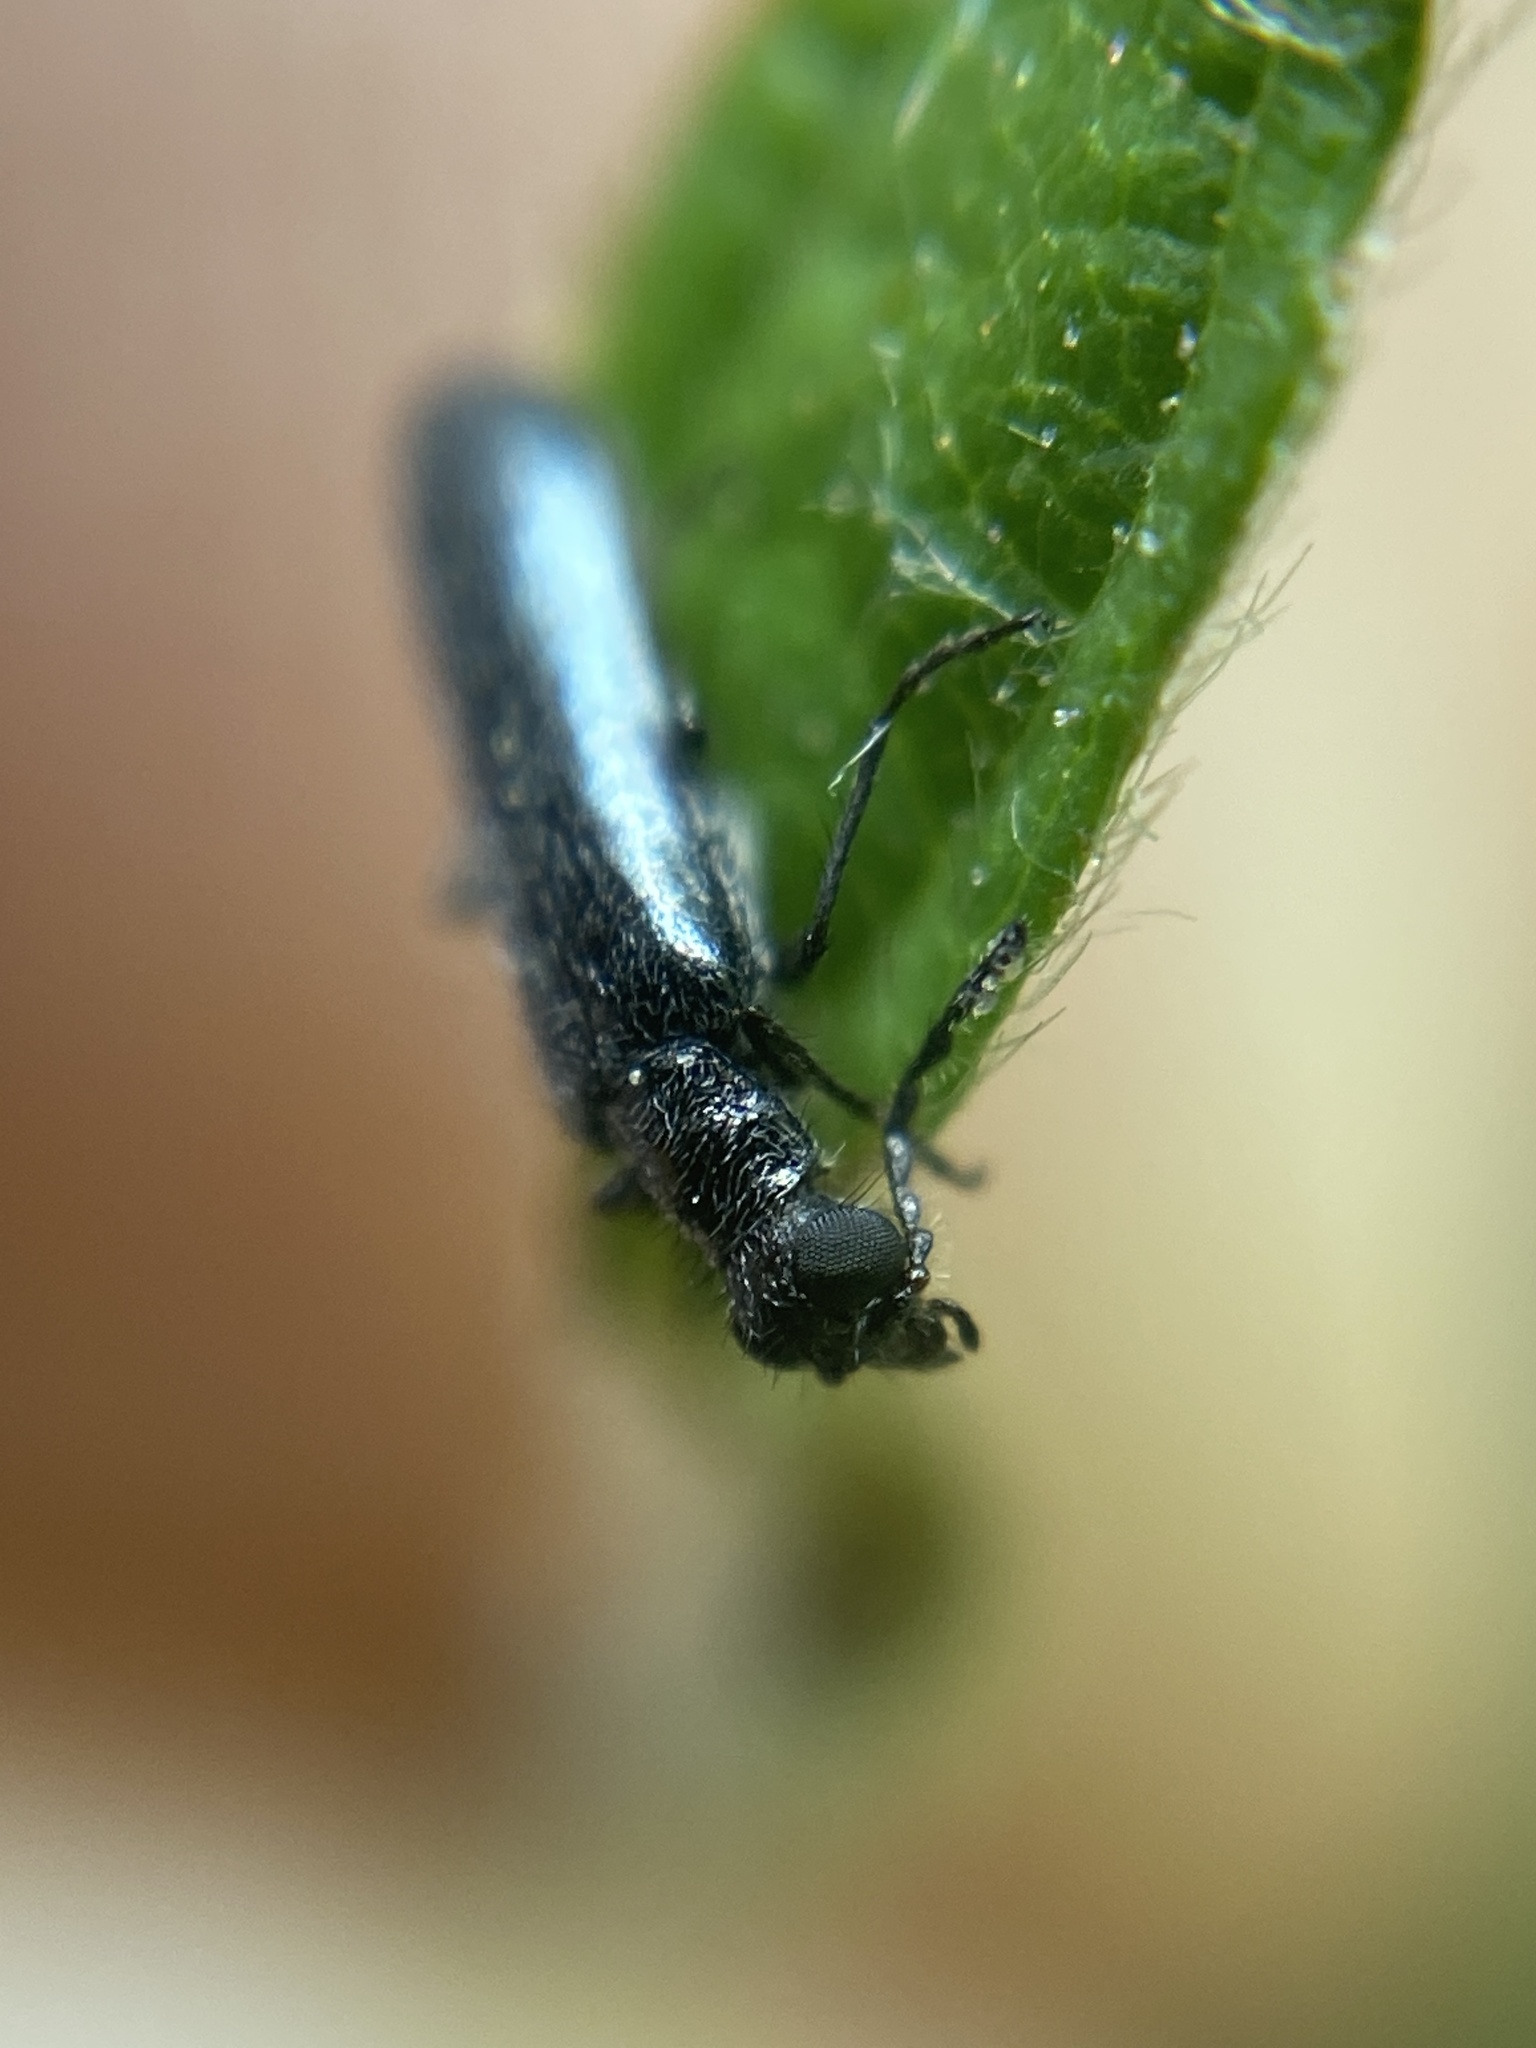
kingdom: Animalia
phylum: Arthropoda
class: Insecta
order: Coleoptera
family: Melyridae
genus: Dasytes
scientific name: Dasytes caeruleus
